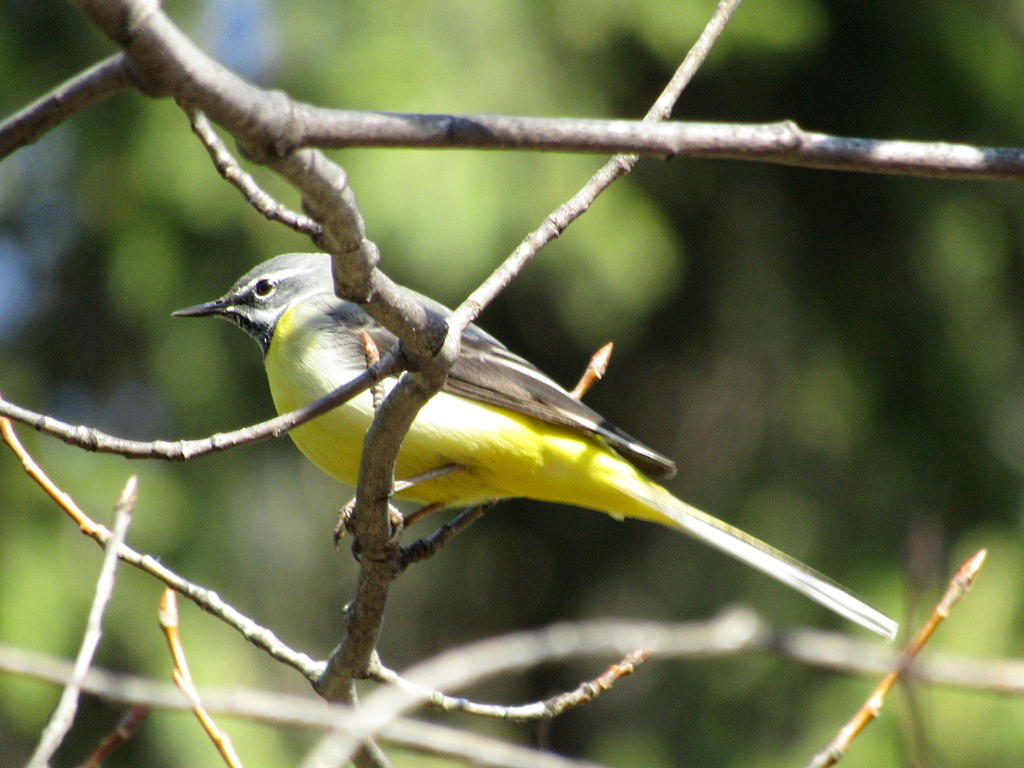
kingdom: Animalia
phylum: Chordata
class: Aves
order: Passeriformes
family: Motacillidae
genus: Motacilla
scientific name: Motacilla cinerea
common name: Grey wagtail
